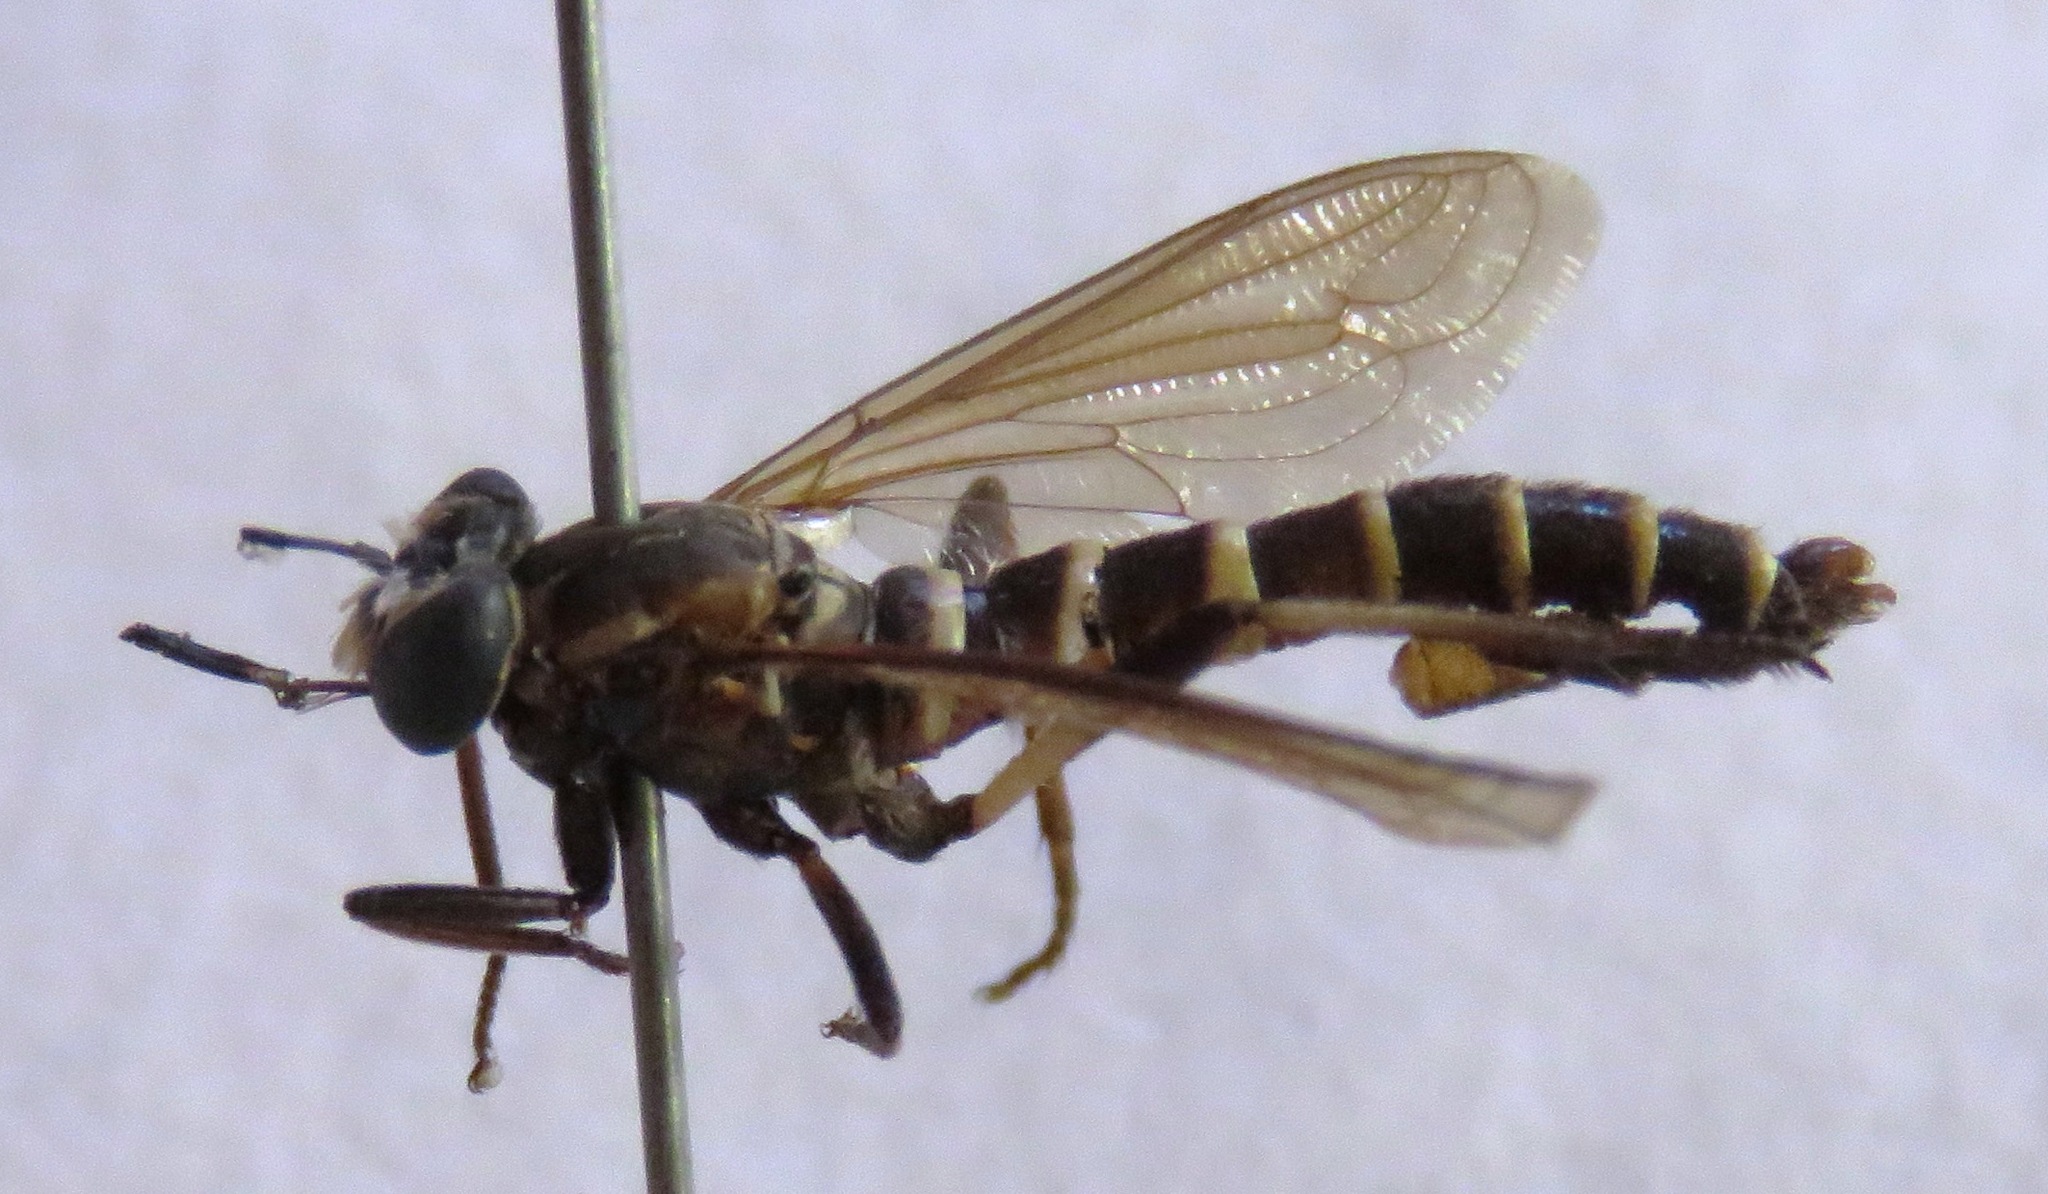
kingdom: Animalia
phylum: Arthropoda
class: Insecta
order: Diptera
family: Mydidae
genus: Nemomydas
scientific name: Nemomydas lamia
